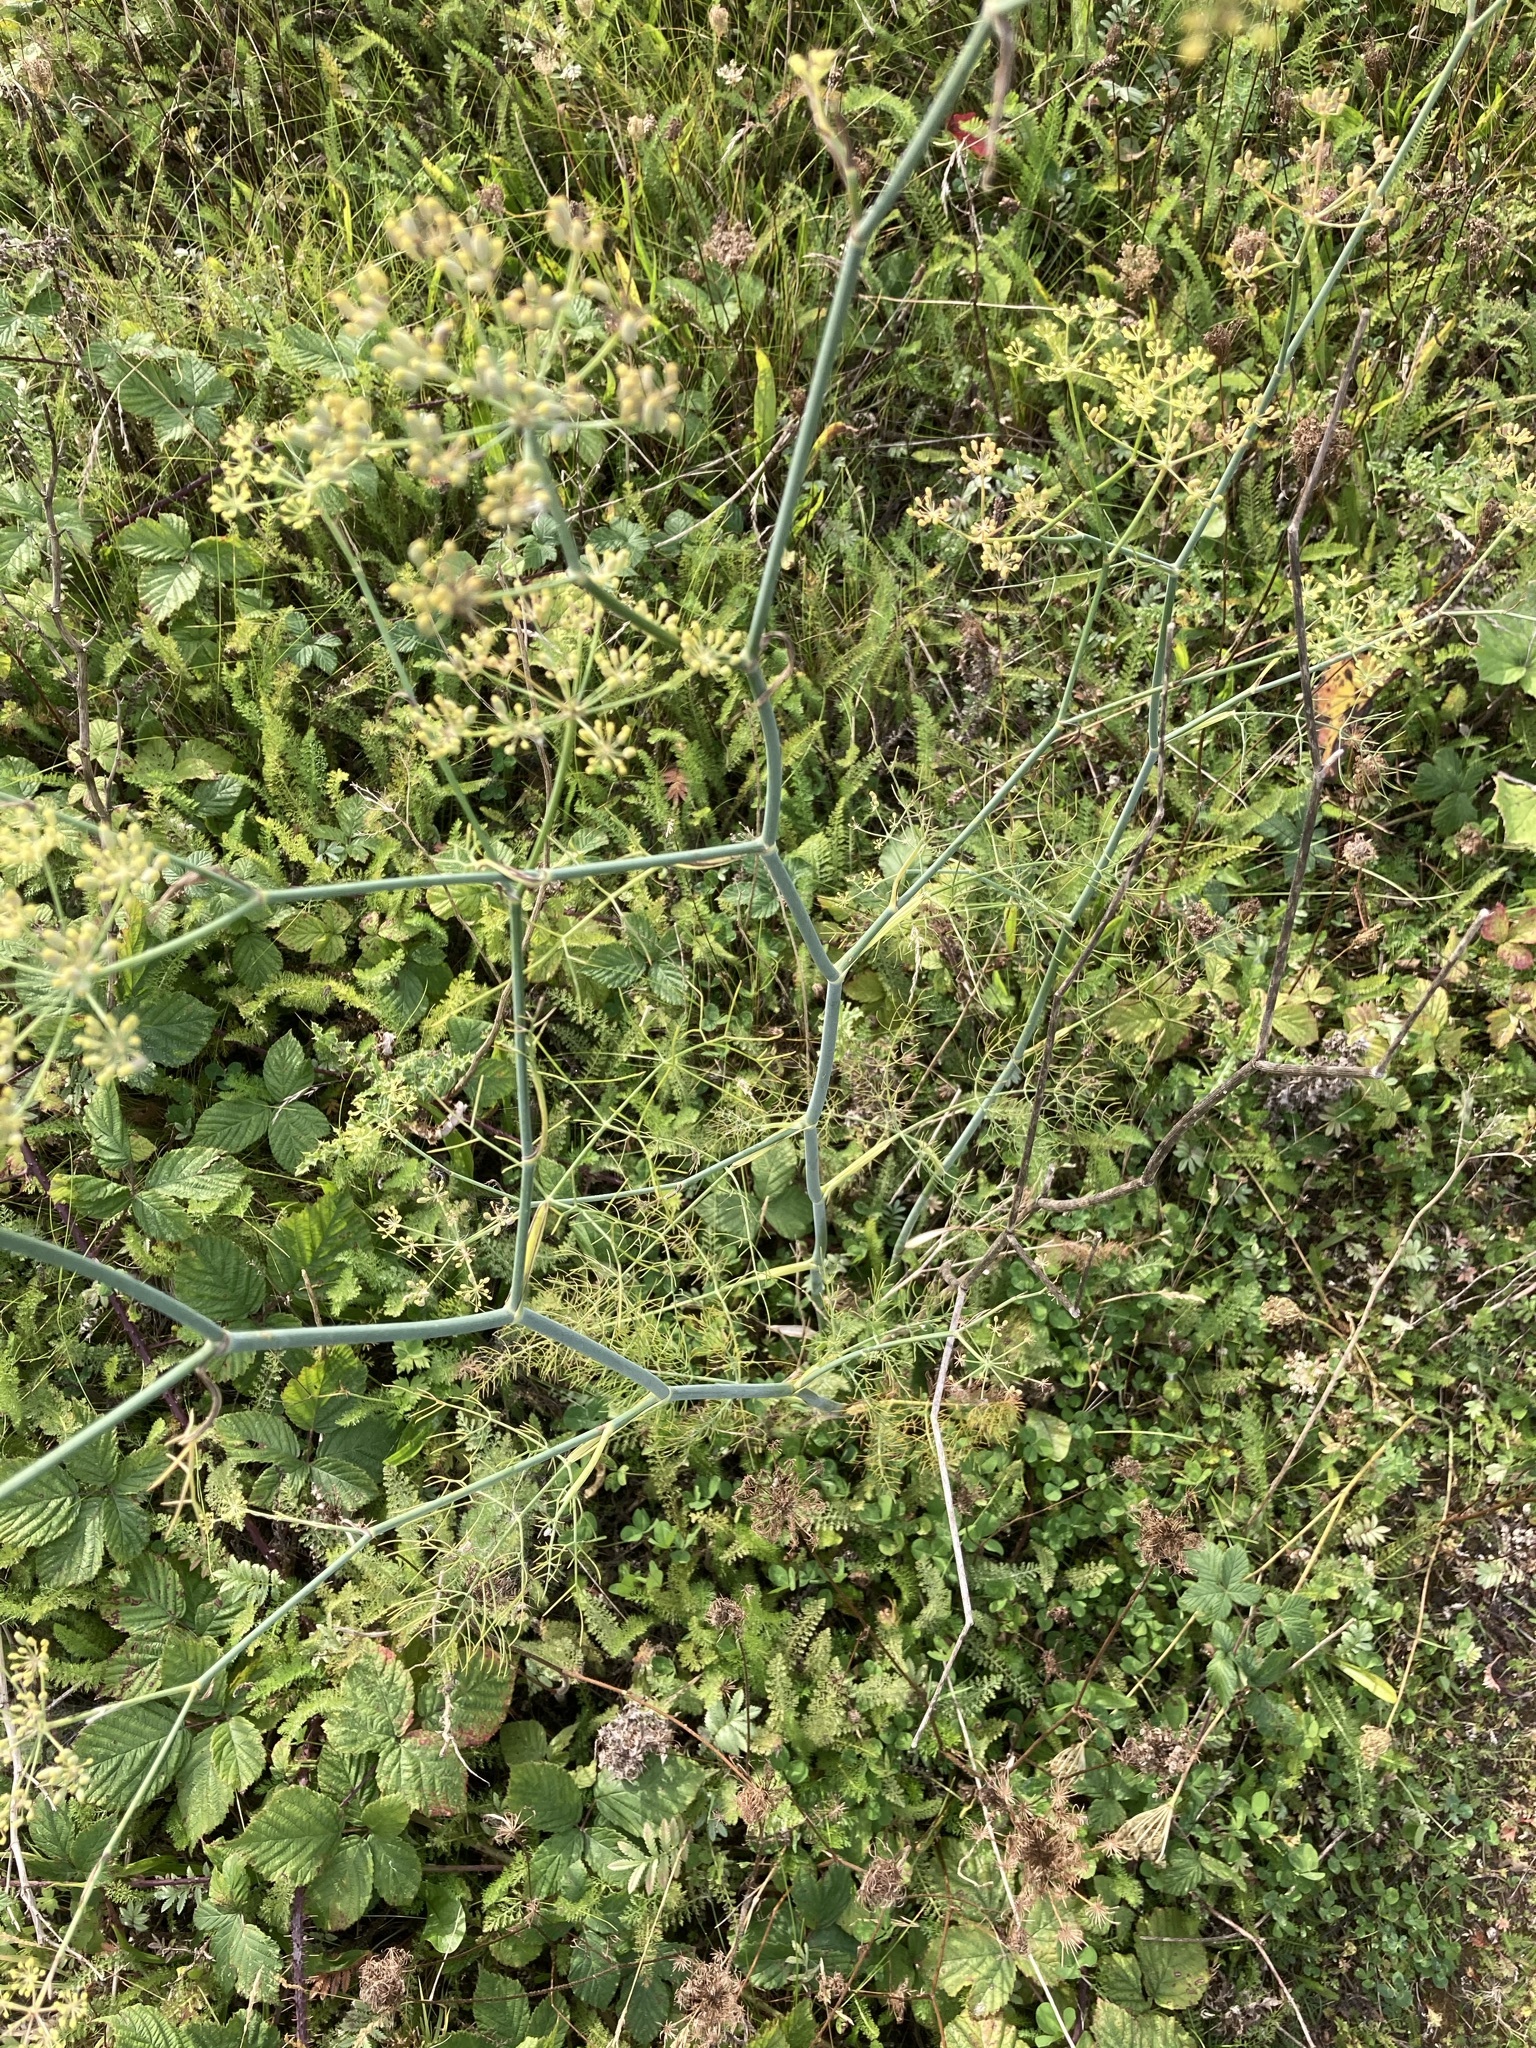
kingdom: Plantae
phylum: Tracheophyta
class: Magnoliopsida
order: Apiales
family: Apiaceae
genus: Foeniculum
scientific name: Foeniculum vulgare
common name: Fennel
